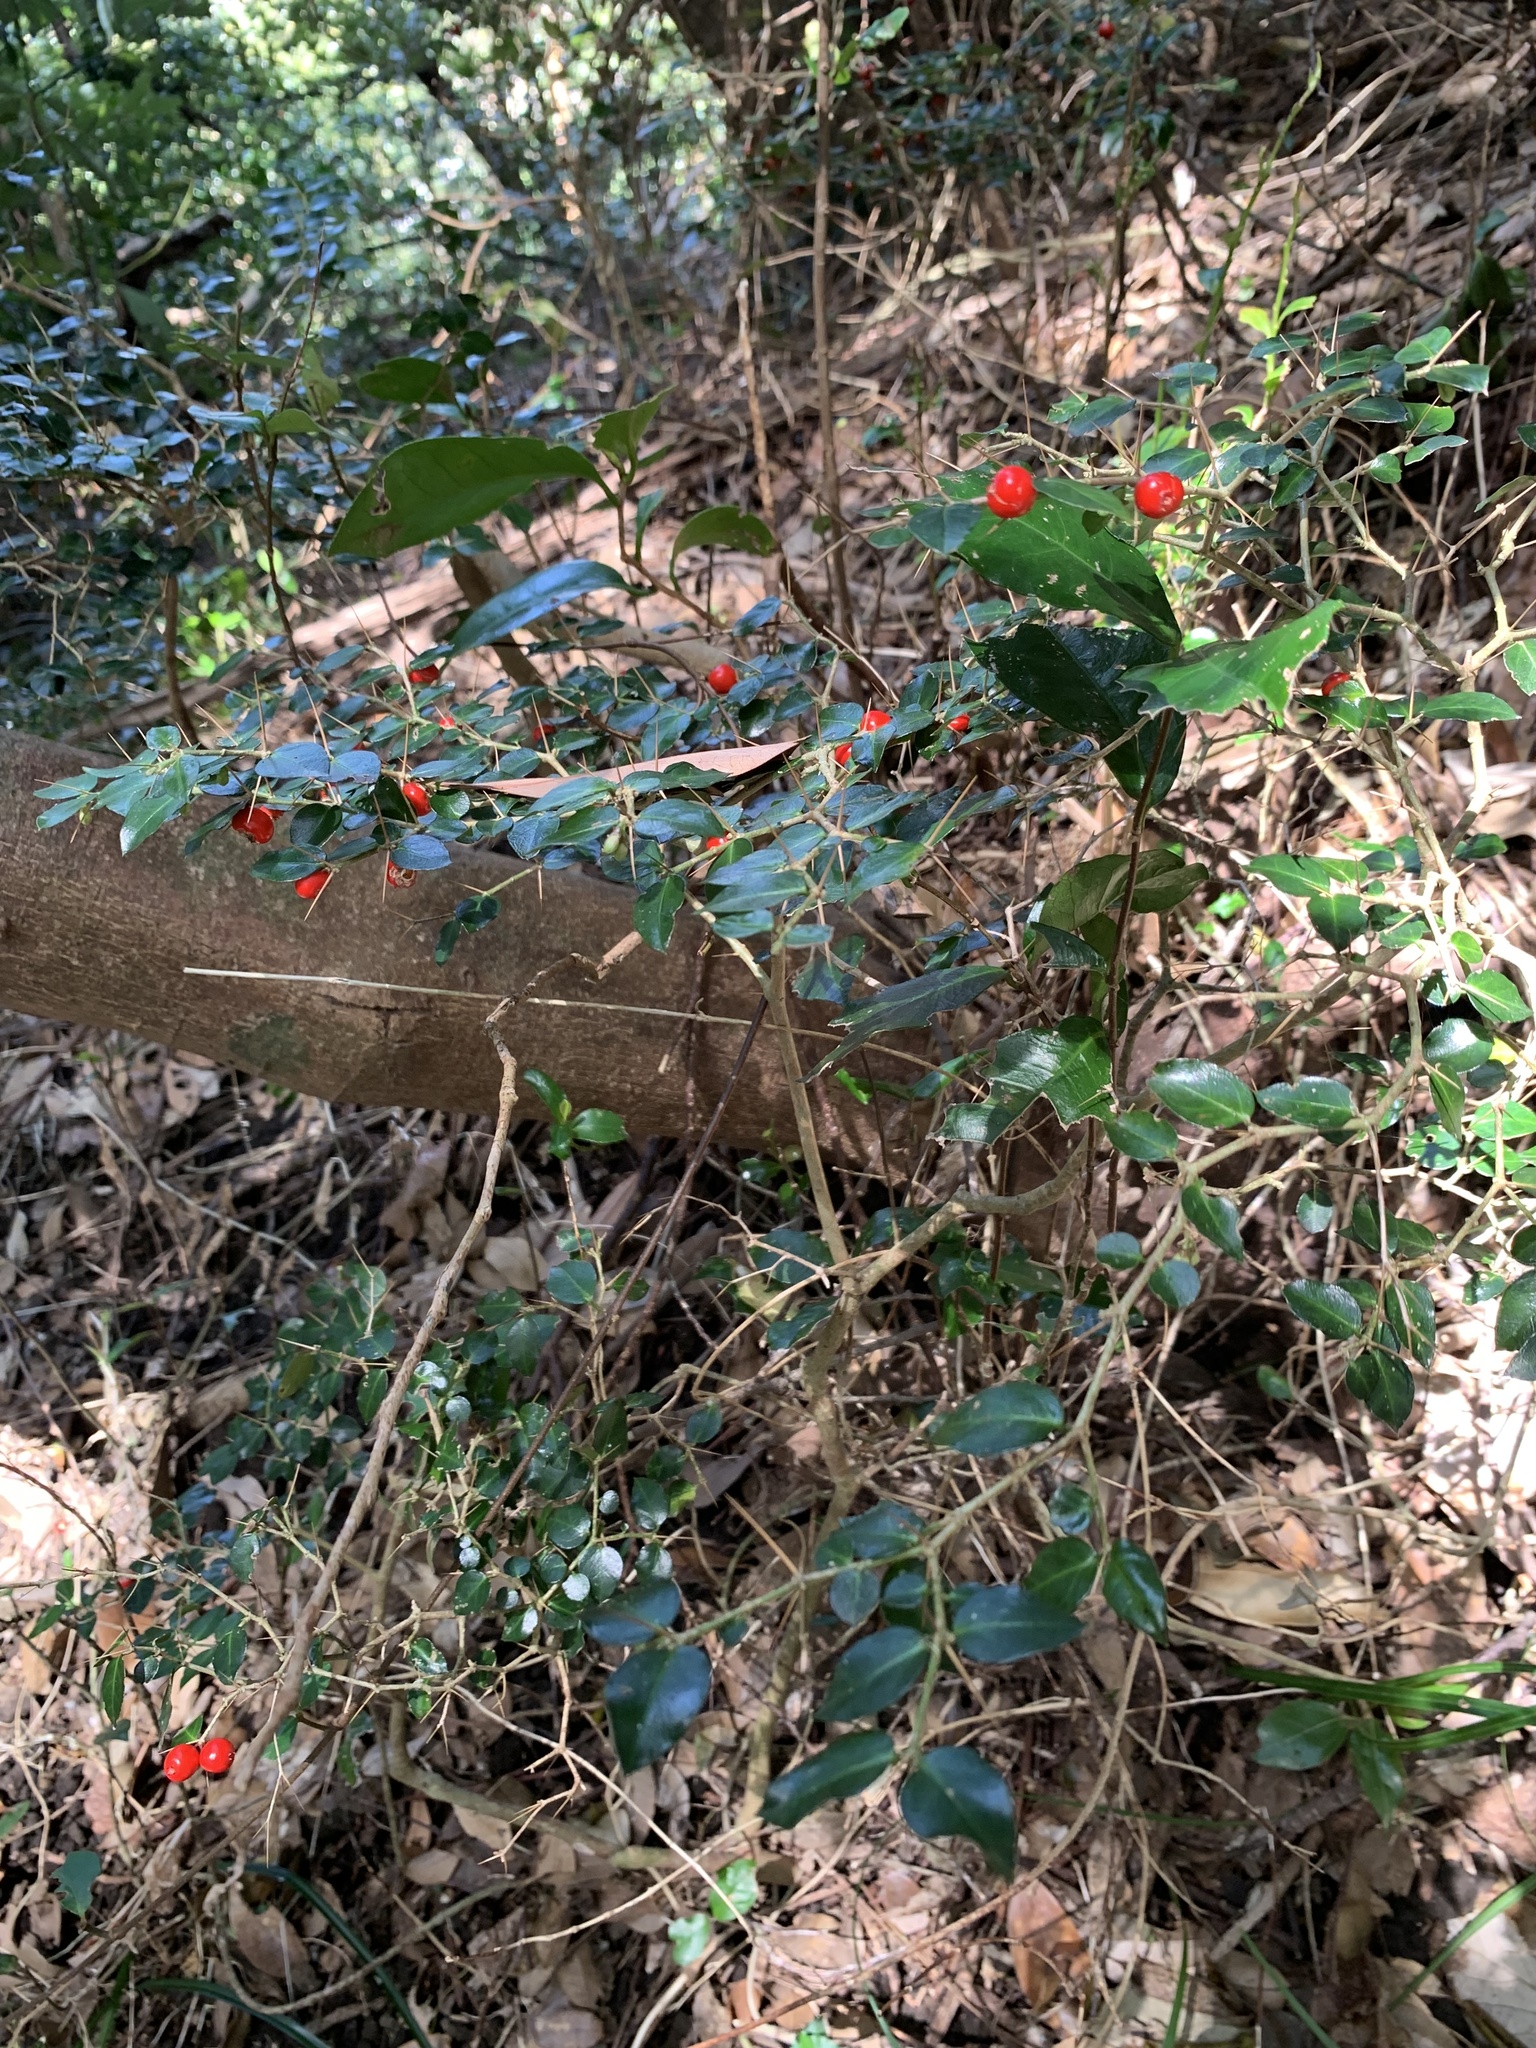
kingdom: Plantae
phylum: Tracheophyta
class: Magnoliopsida
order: Gentianales
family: Rubiaceae
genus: Damnacanthus
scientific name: Damnacanthus indicus
